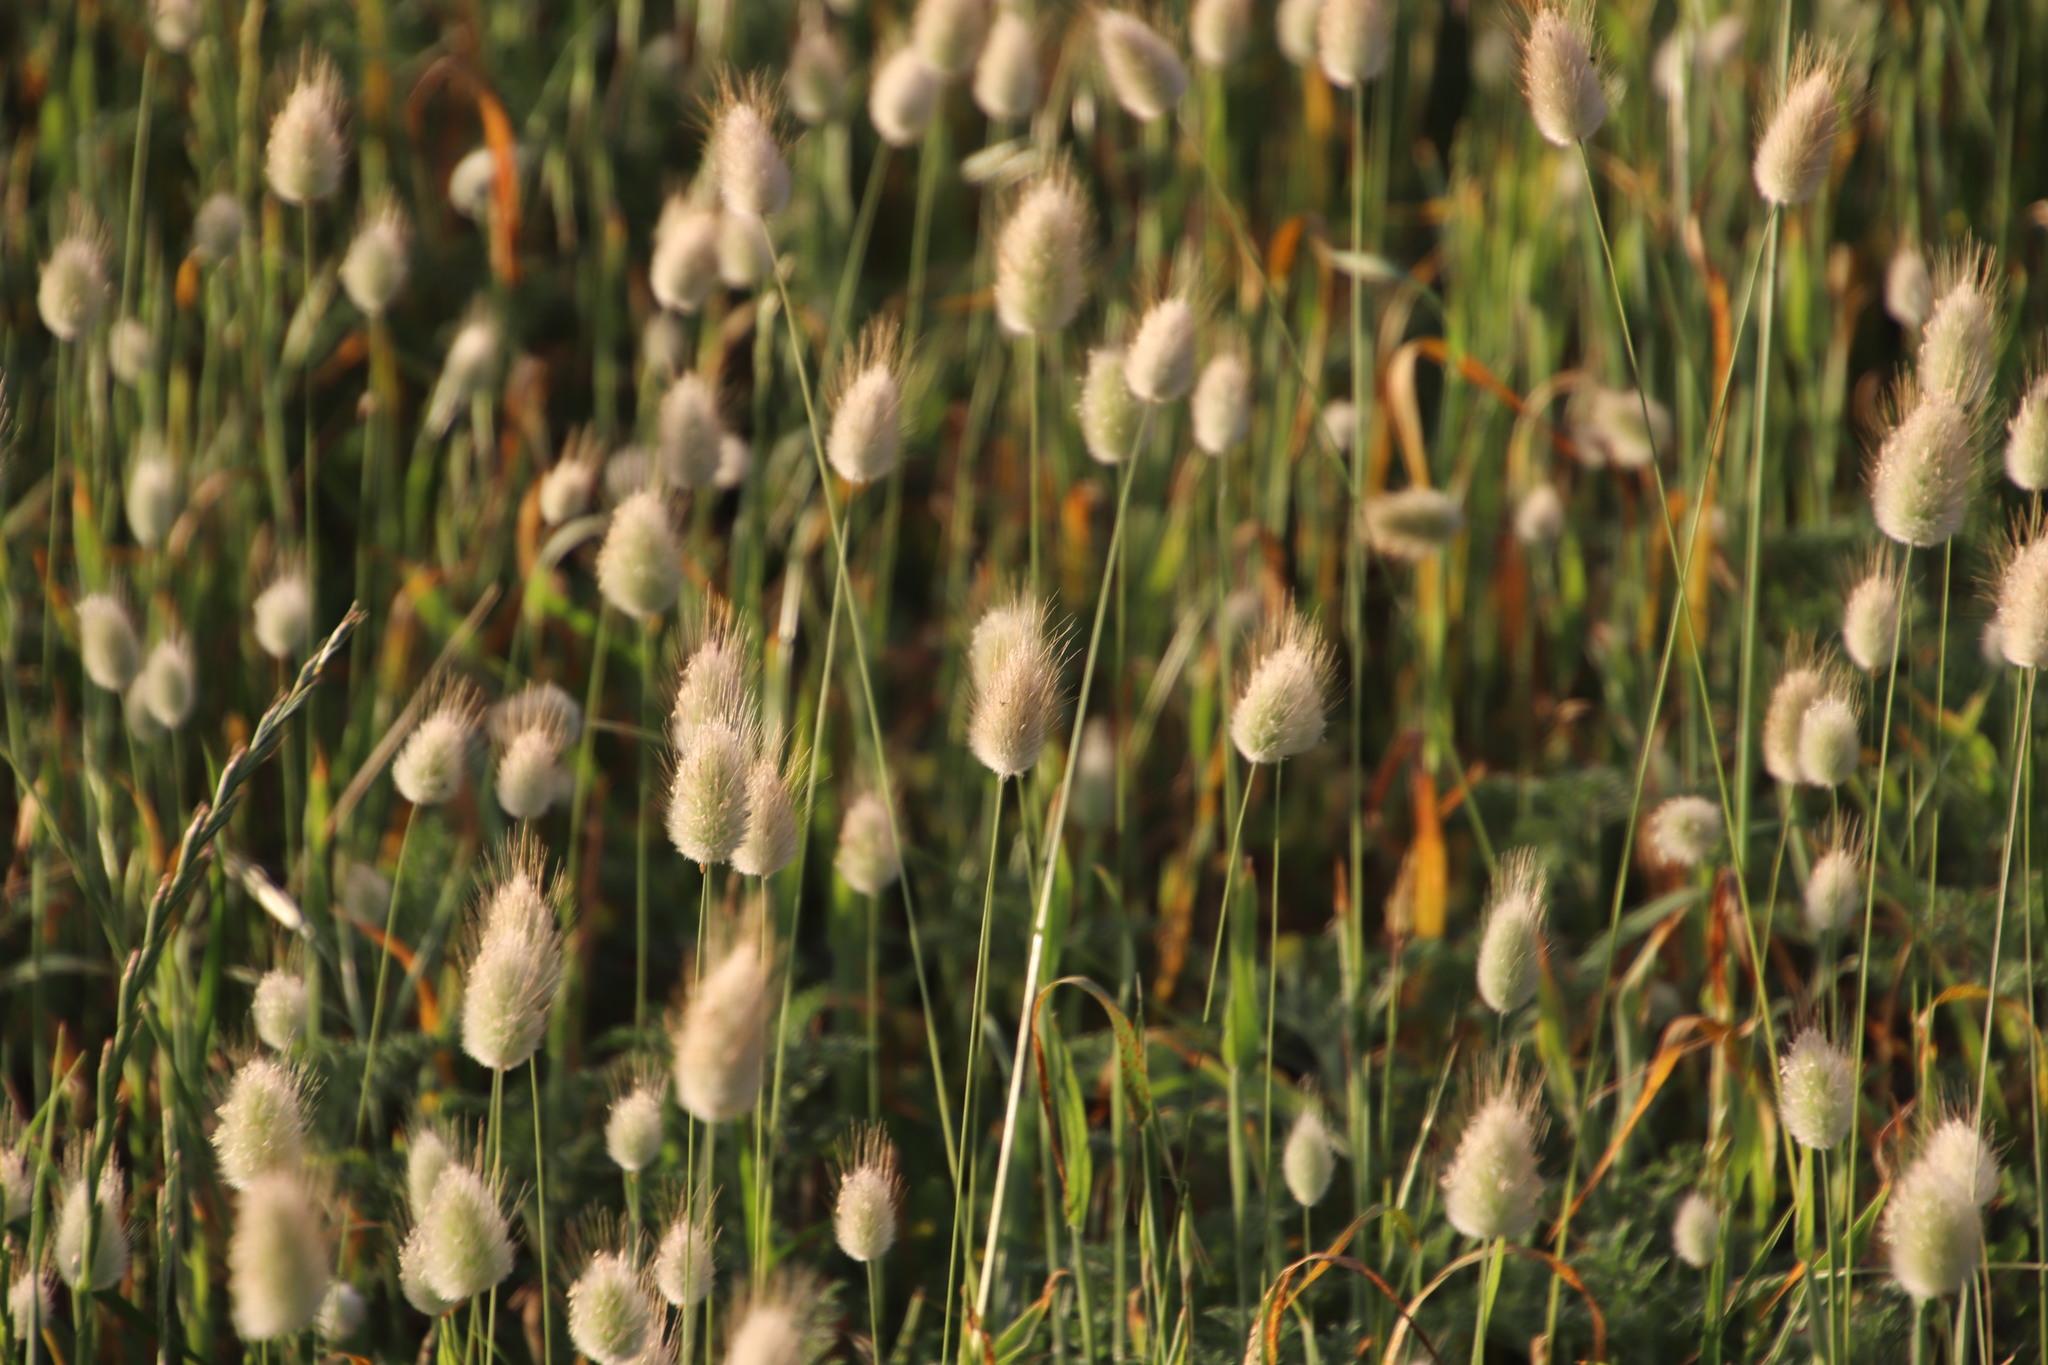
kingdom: Plantae
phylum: Tracheophyta
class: Liliopsida
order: Poales
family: Poaceae
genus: Lagurus
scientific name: Lagurus ovatus
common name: Hare's-tail
